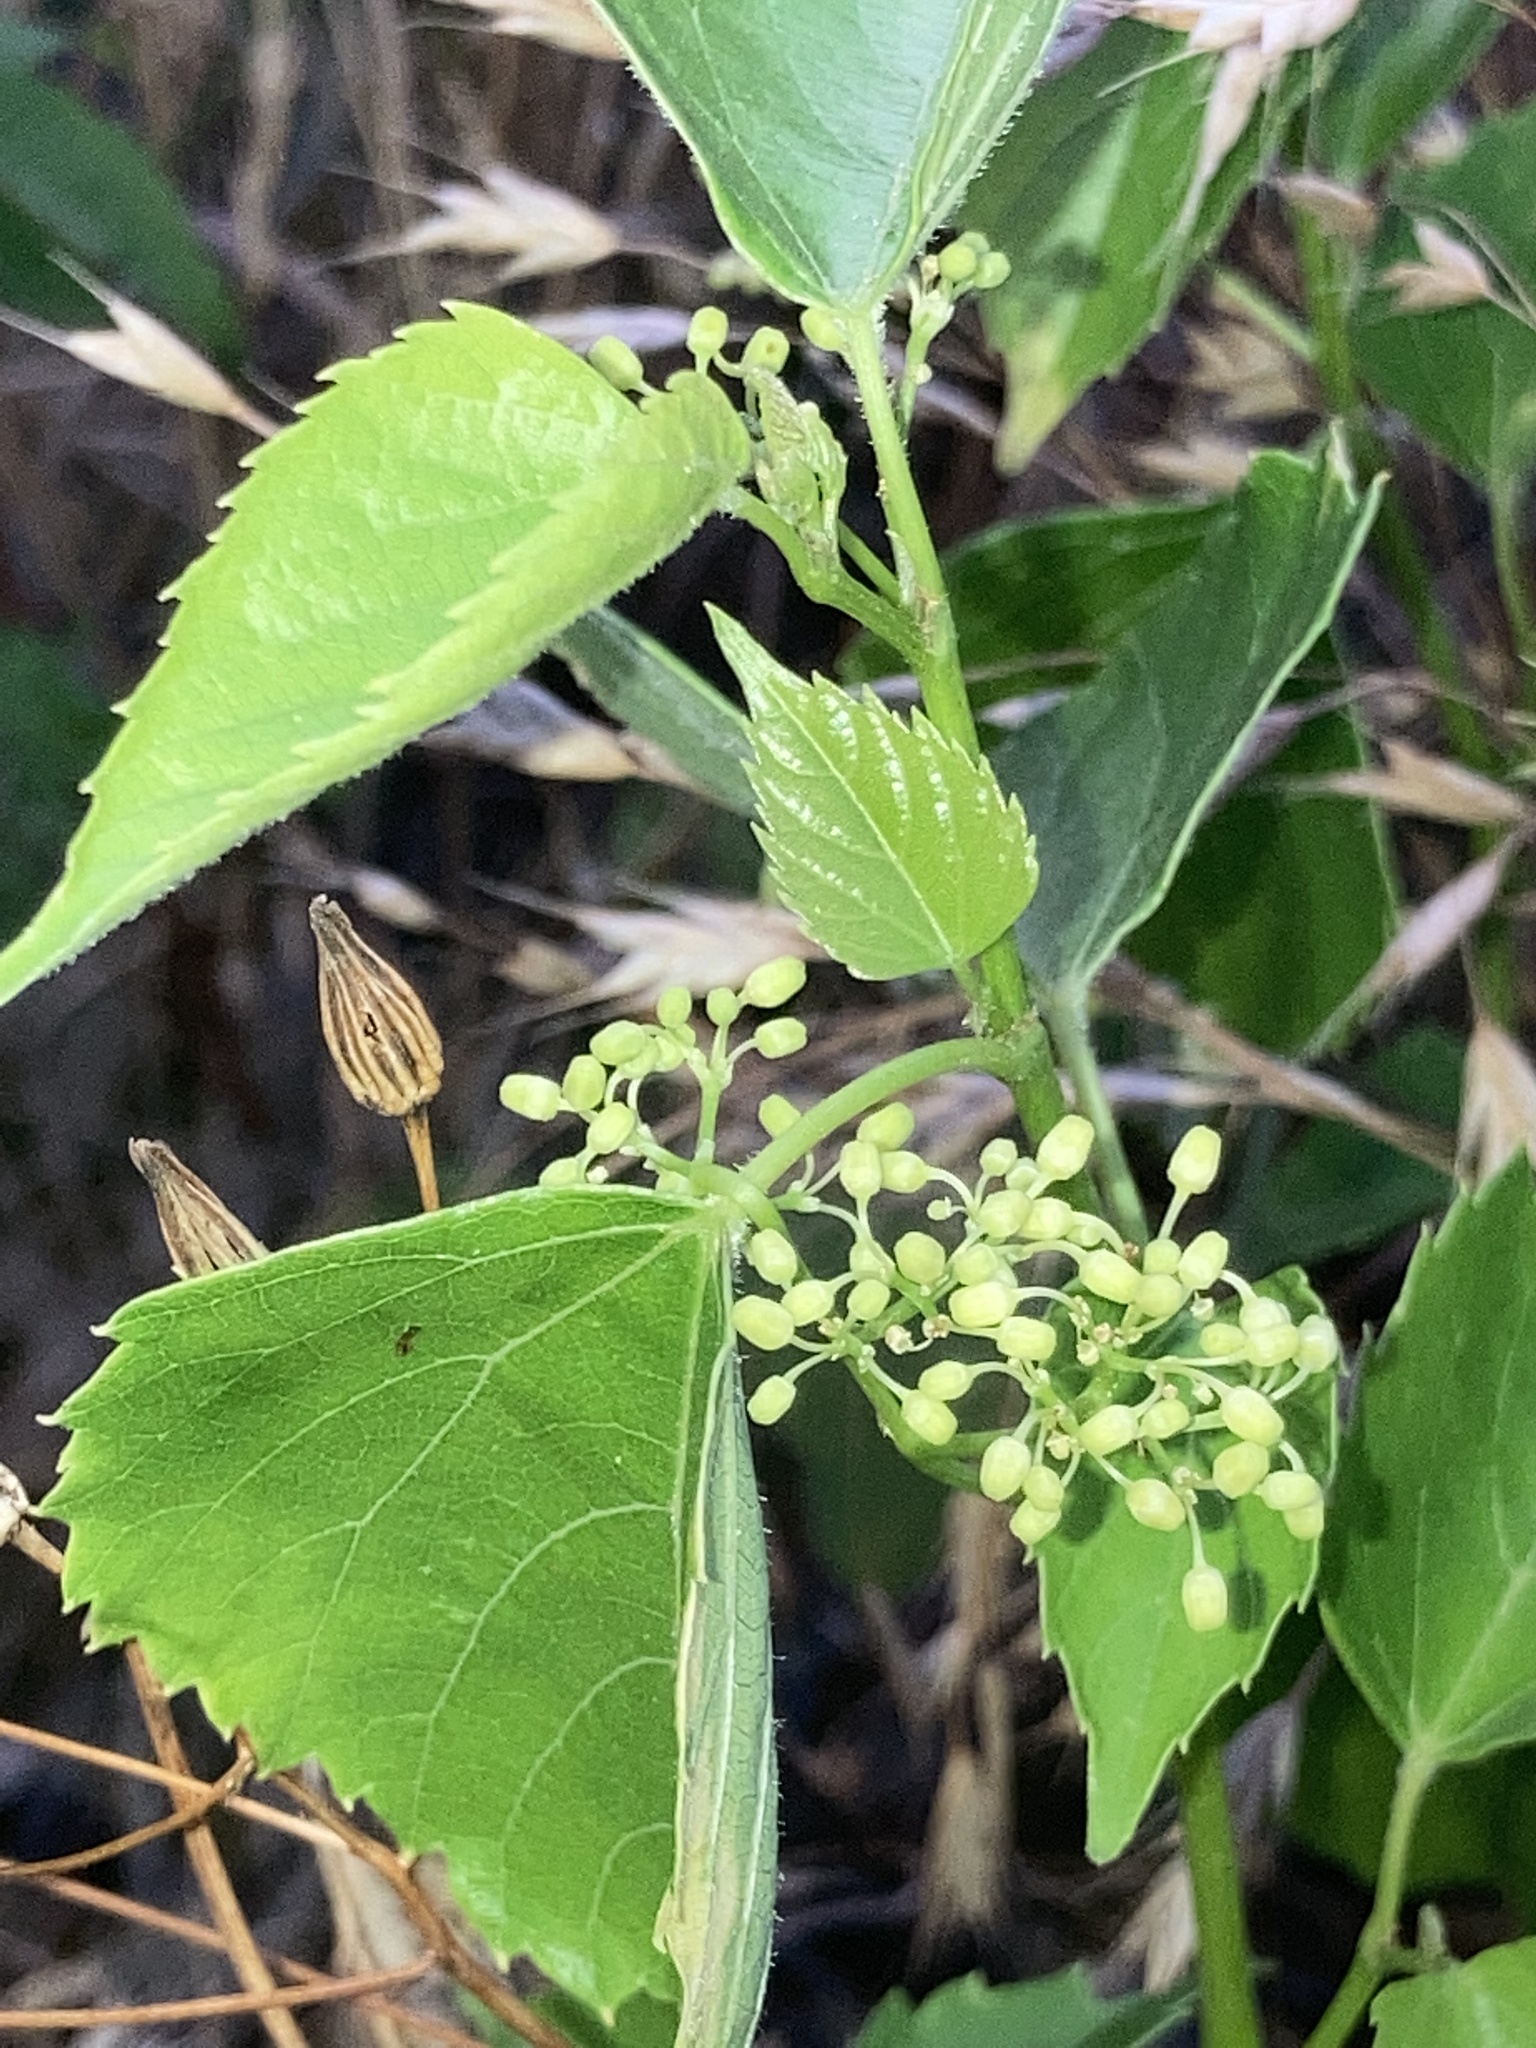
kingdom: Plantae
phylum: Tracheophyta
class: Magnoliopsida
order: Vitales
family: Vitaceae
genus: Ampelopsis
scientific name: Ampelopsis cordata
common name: Heart-leaf ampelopsis
